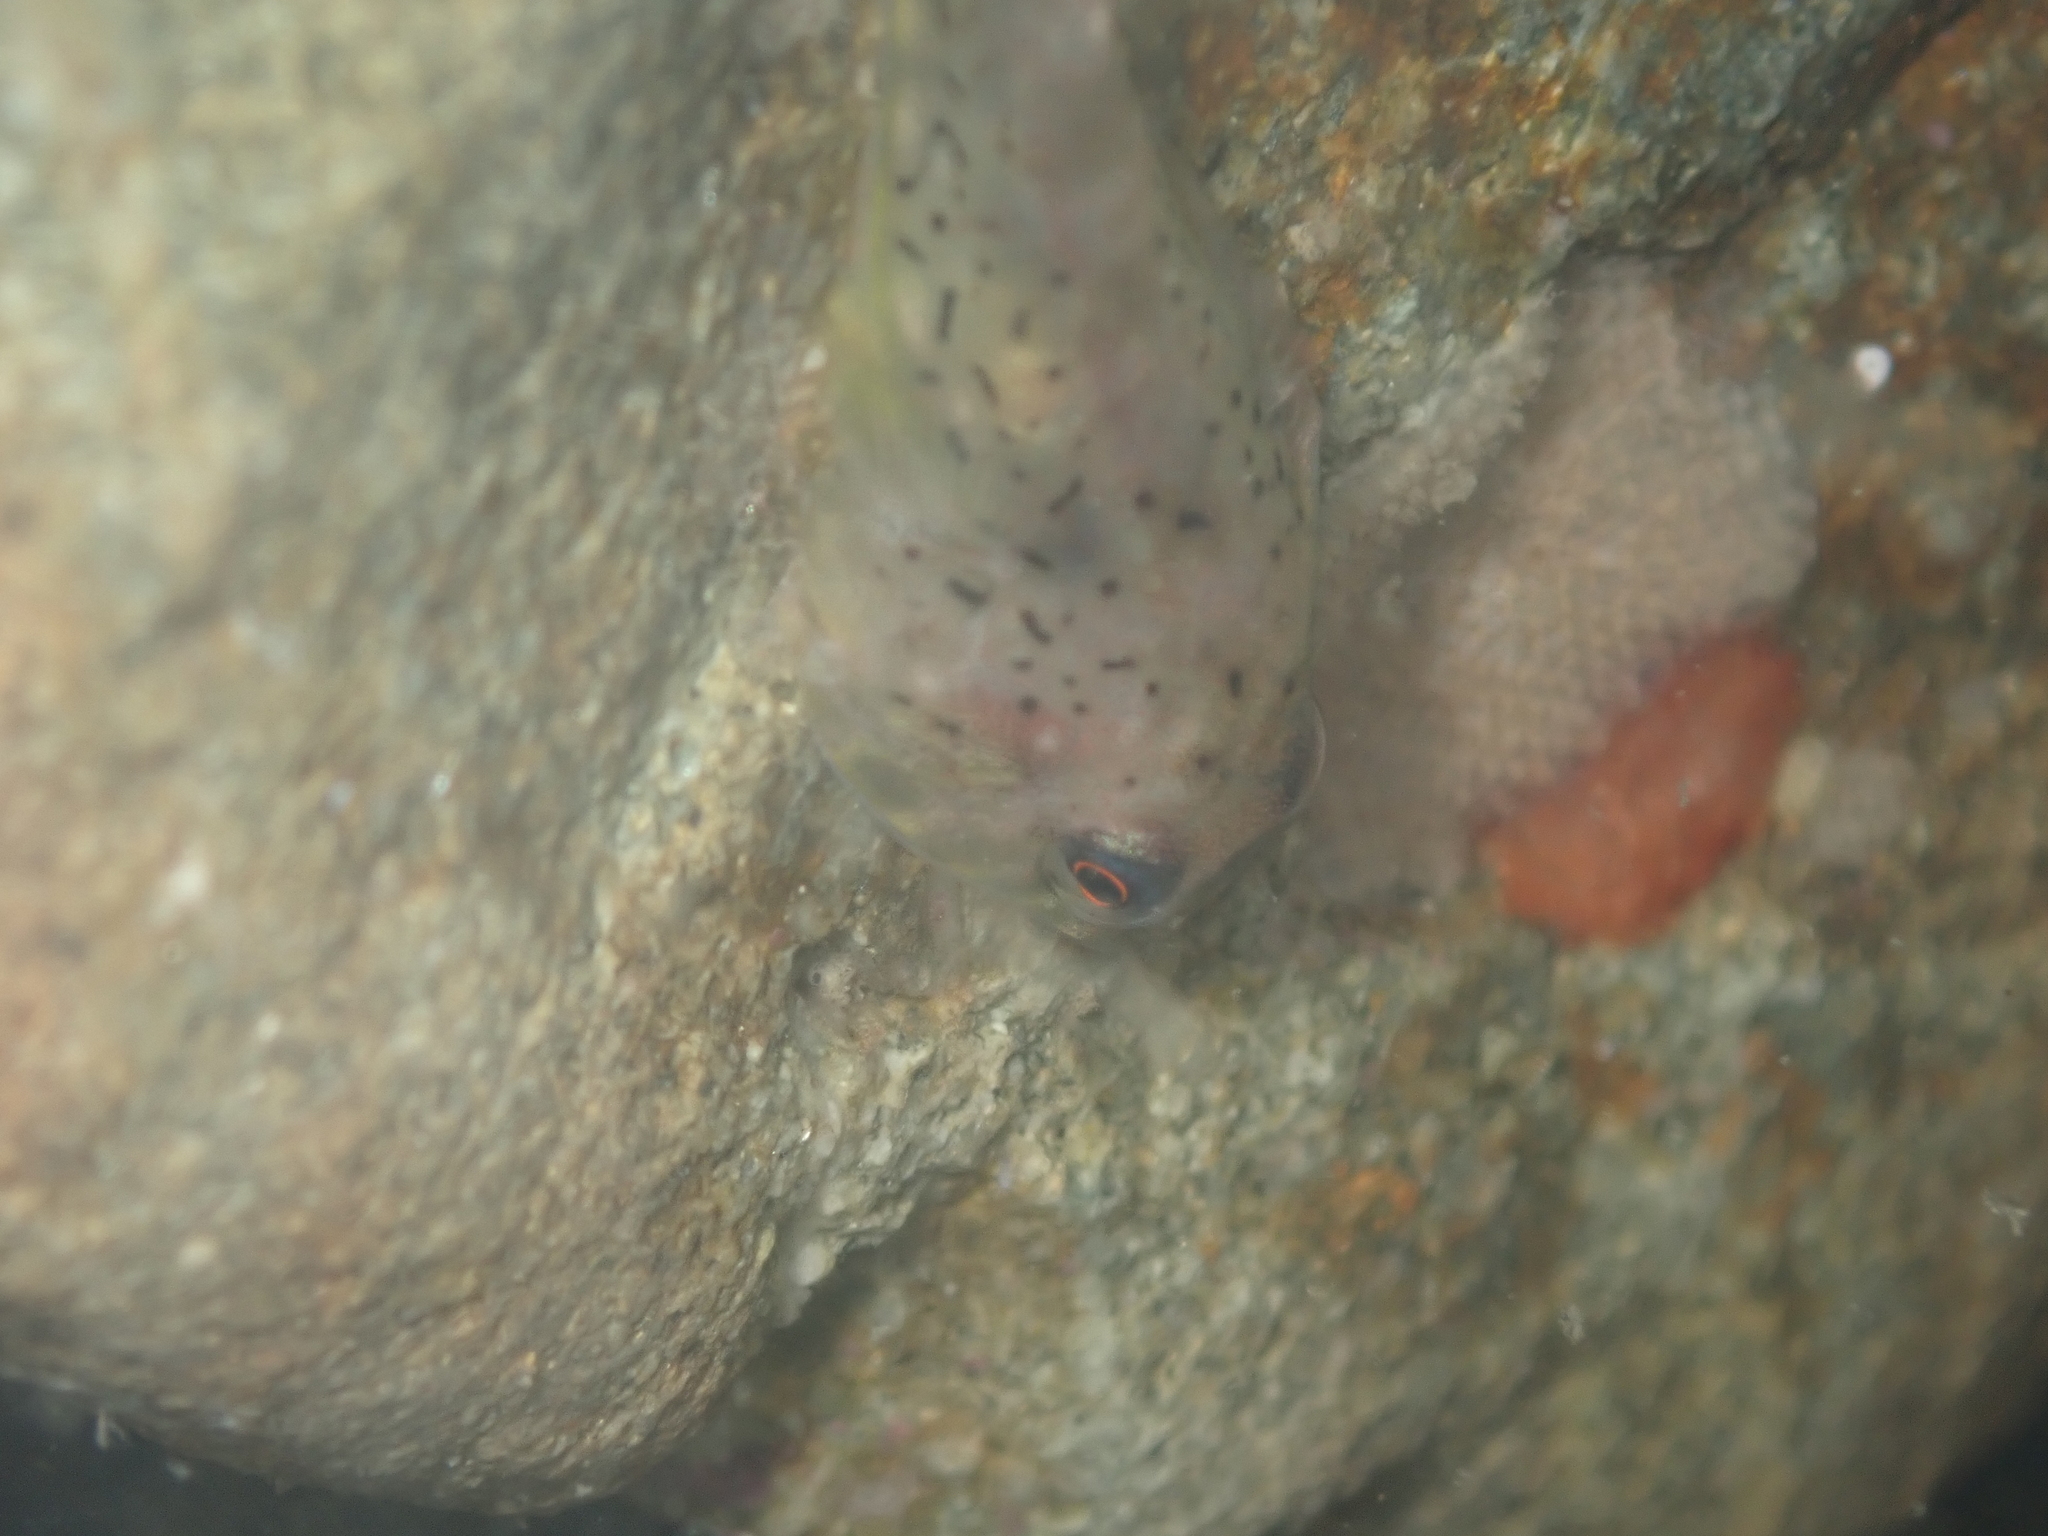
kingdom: Animalia
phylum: Chordata
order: Gobiesociformes
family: Gobiesocidae
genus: Diplocrepis
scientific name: Diplocrepis puniceus
